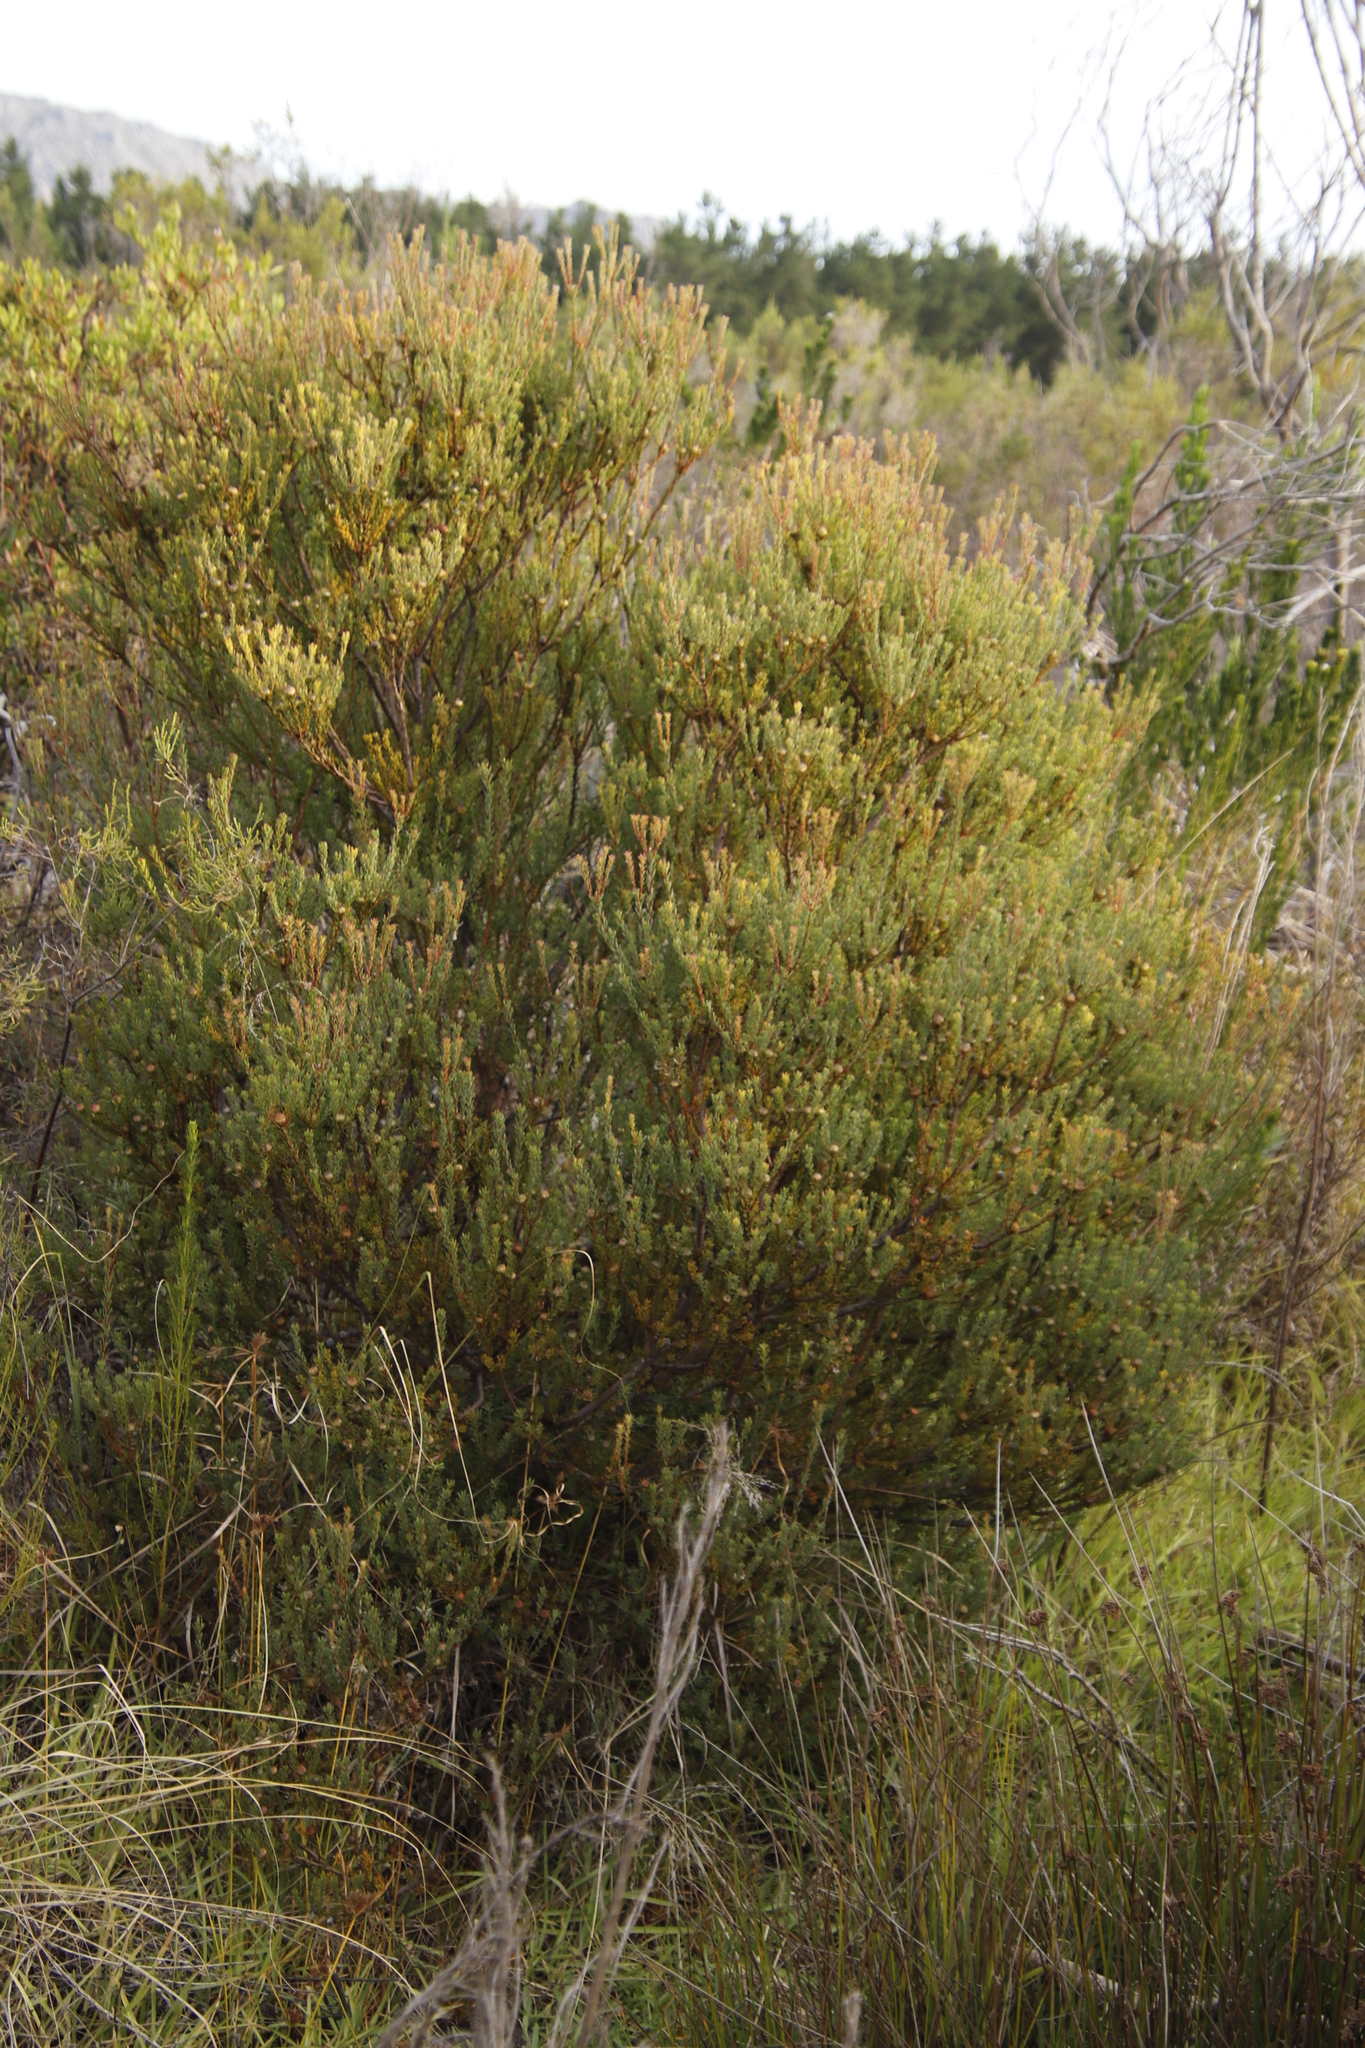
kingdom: Plantae
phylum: Tracheophyta
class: Magnoliopsida
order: Proteales
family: Proteaceae
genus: Leucadendron
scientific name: Leucadendron levisanus
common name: Cape flats conebush
